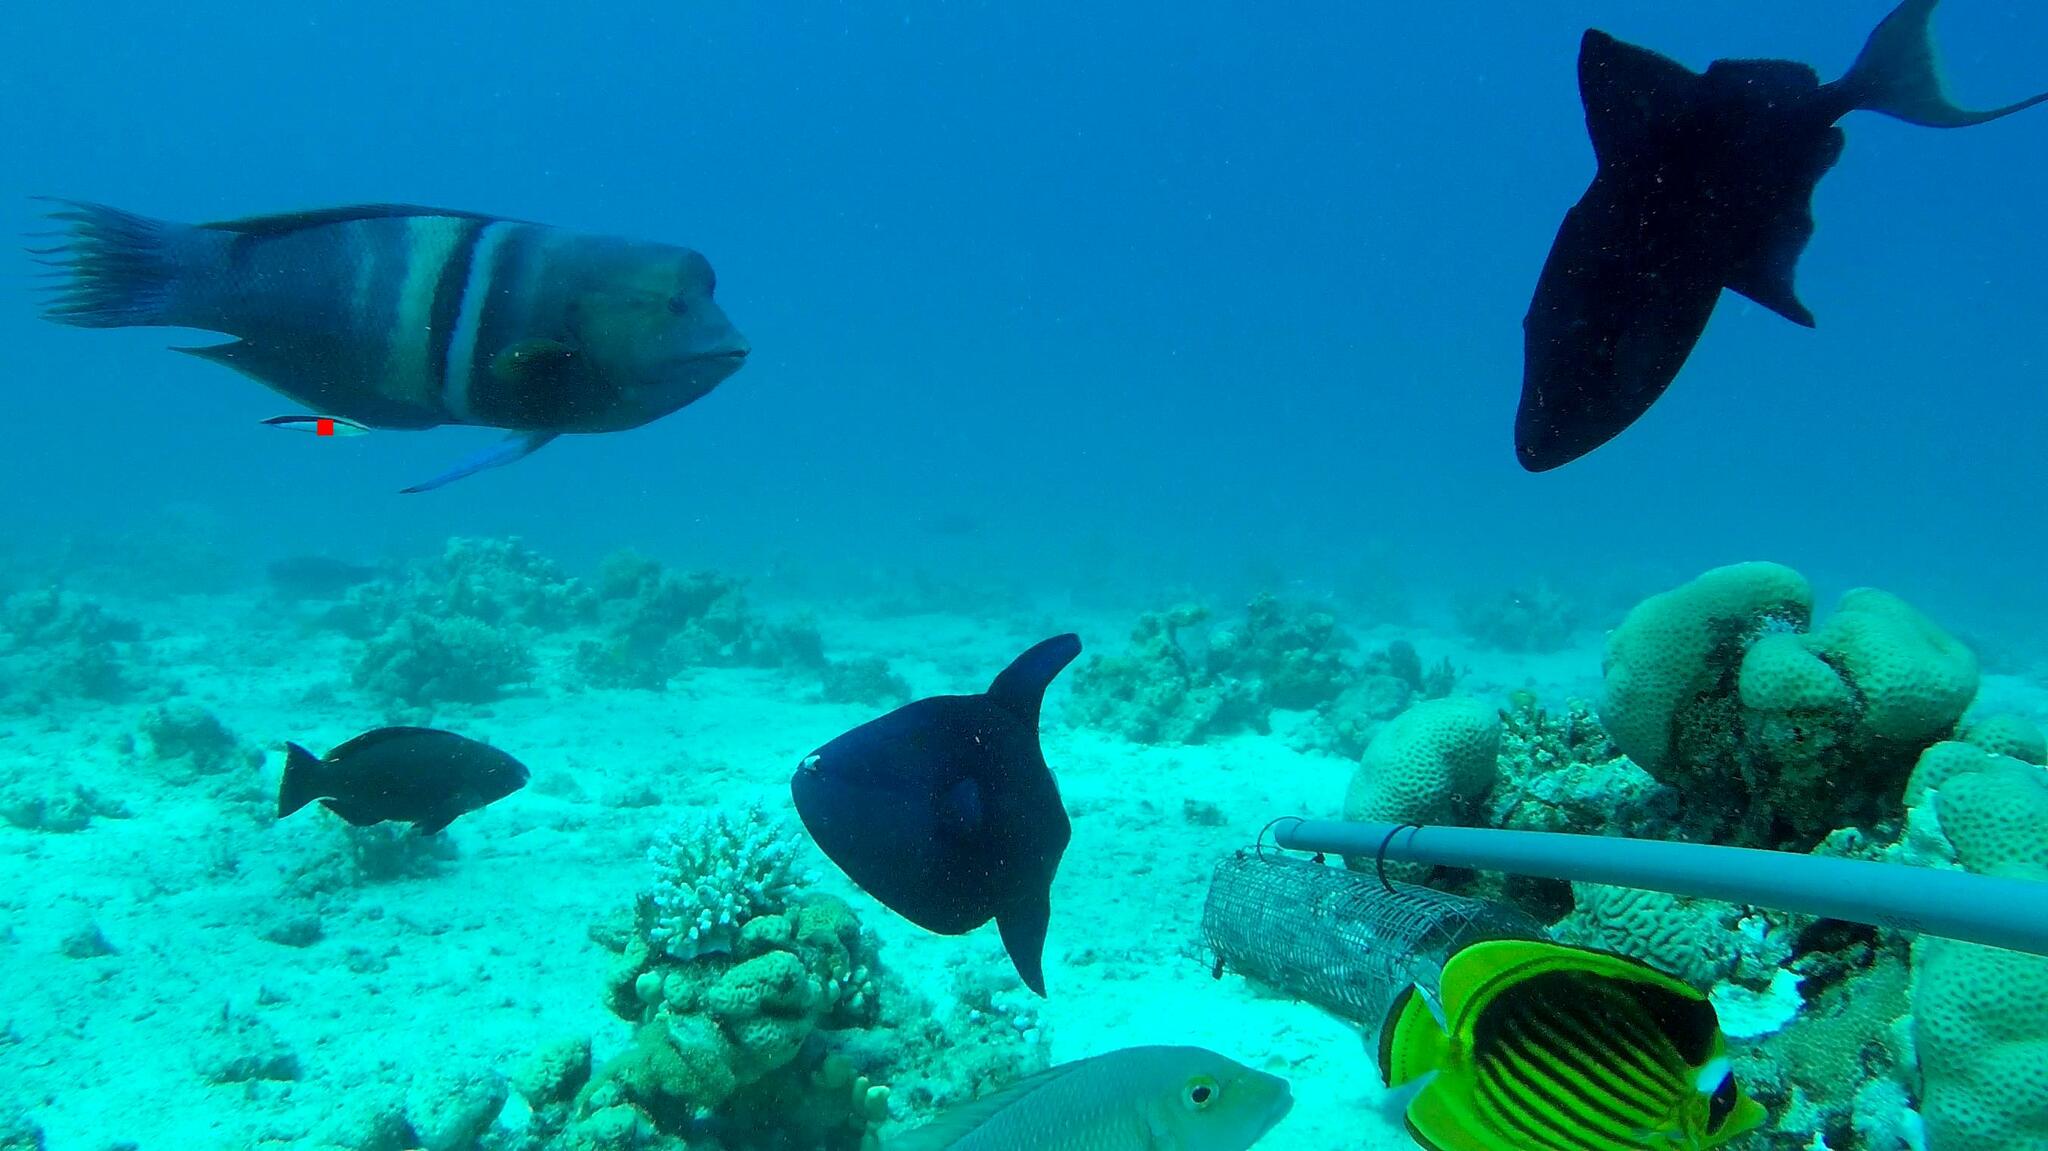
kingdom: Animalia
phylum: Chordata
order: Perciformes
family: Labridae
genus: Coris
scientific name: Coris aygula
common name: Clown coris
